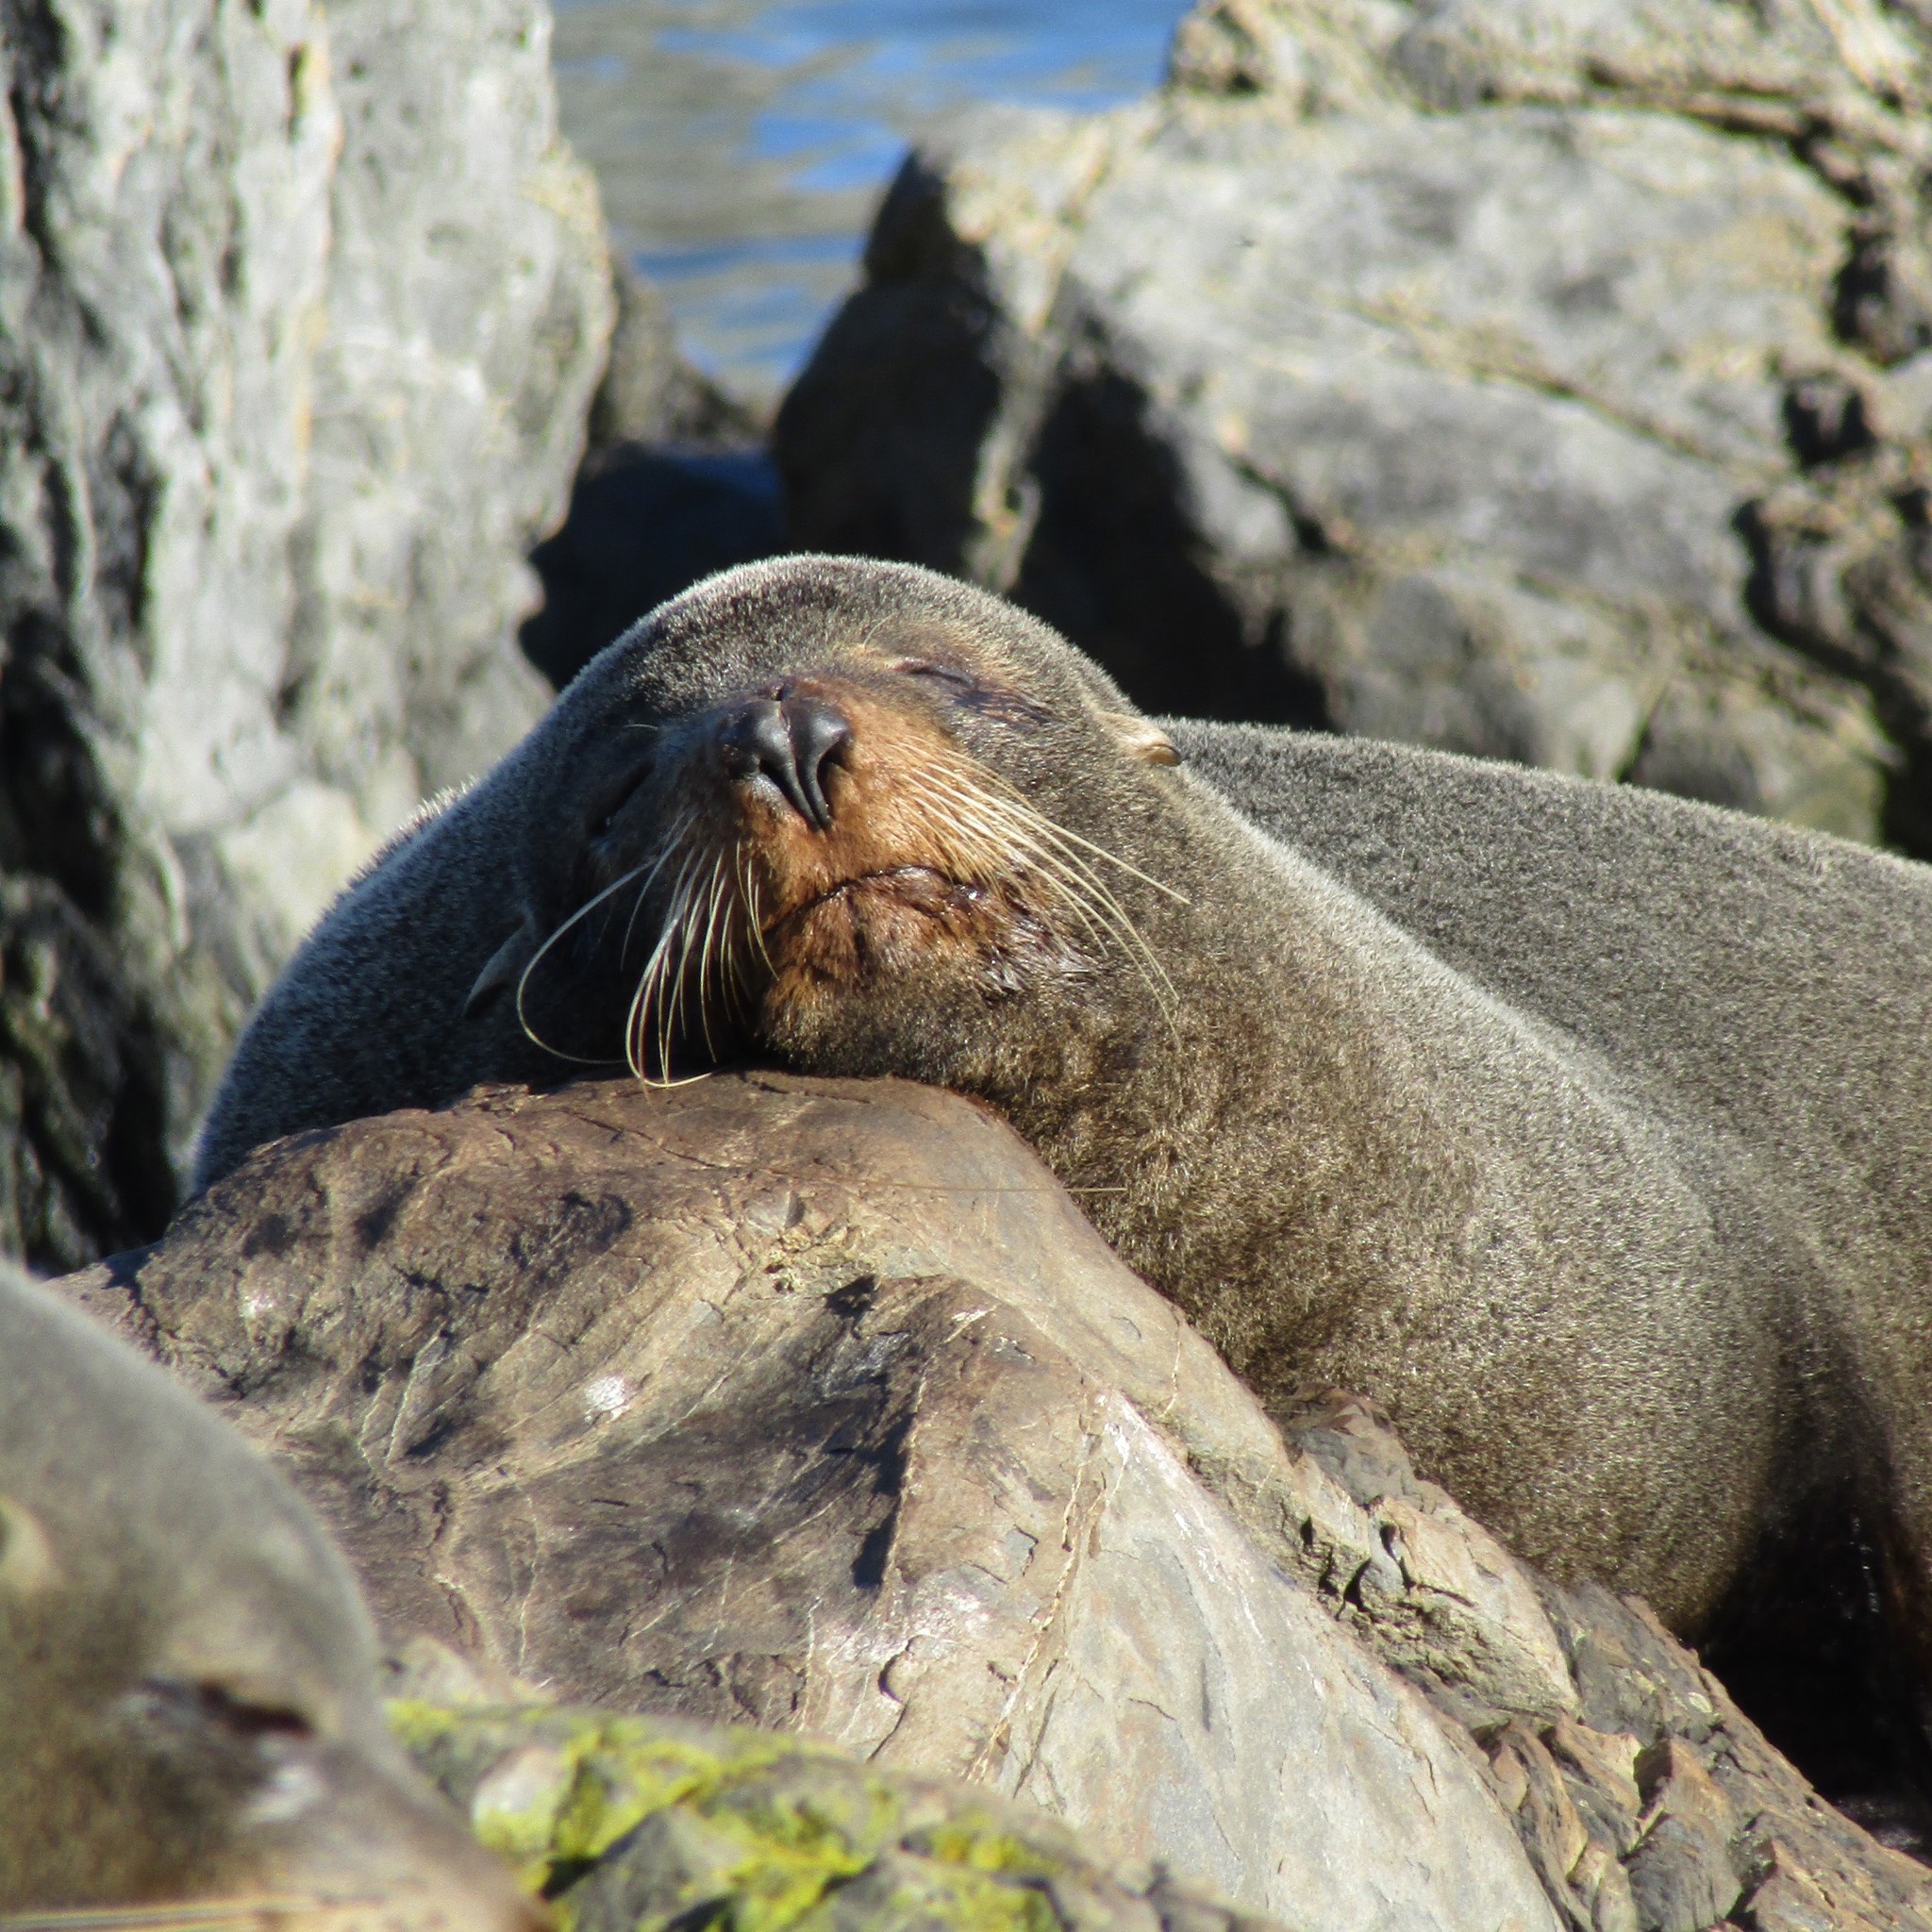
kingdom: Animalia
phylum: Chordata
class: Mammalia
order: Carnivora
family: Otariidae
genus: Arctocephalus
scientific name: Arctocephalus forsteri
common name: New zealand fur seal
